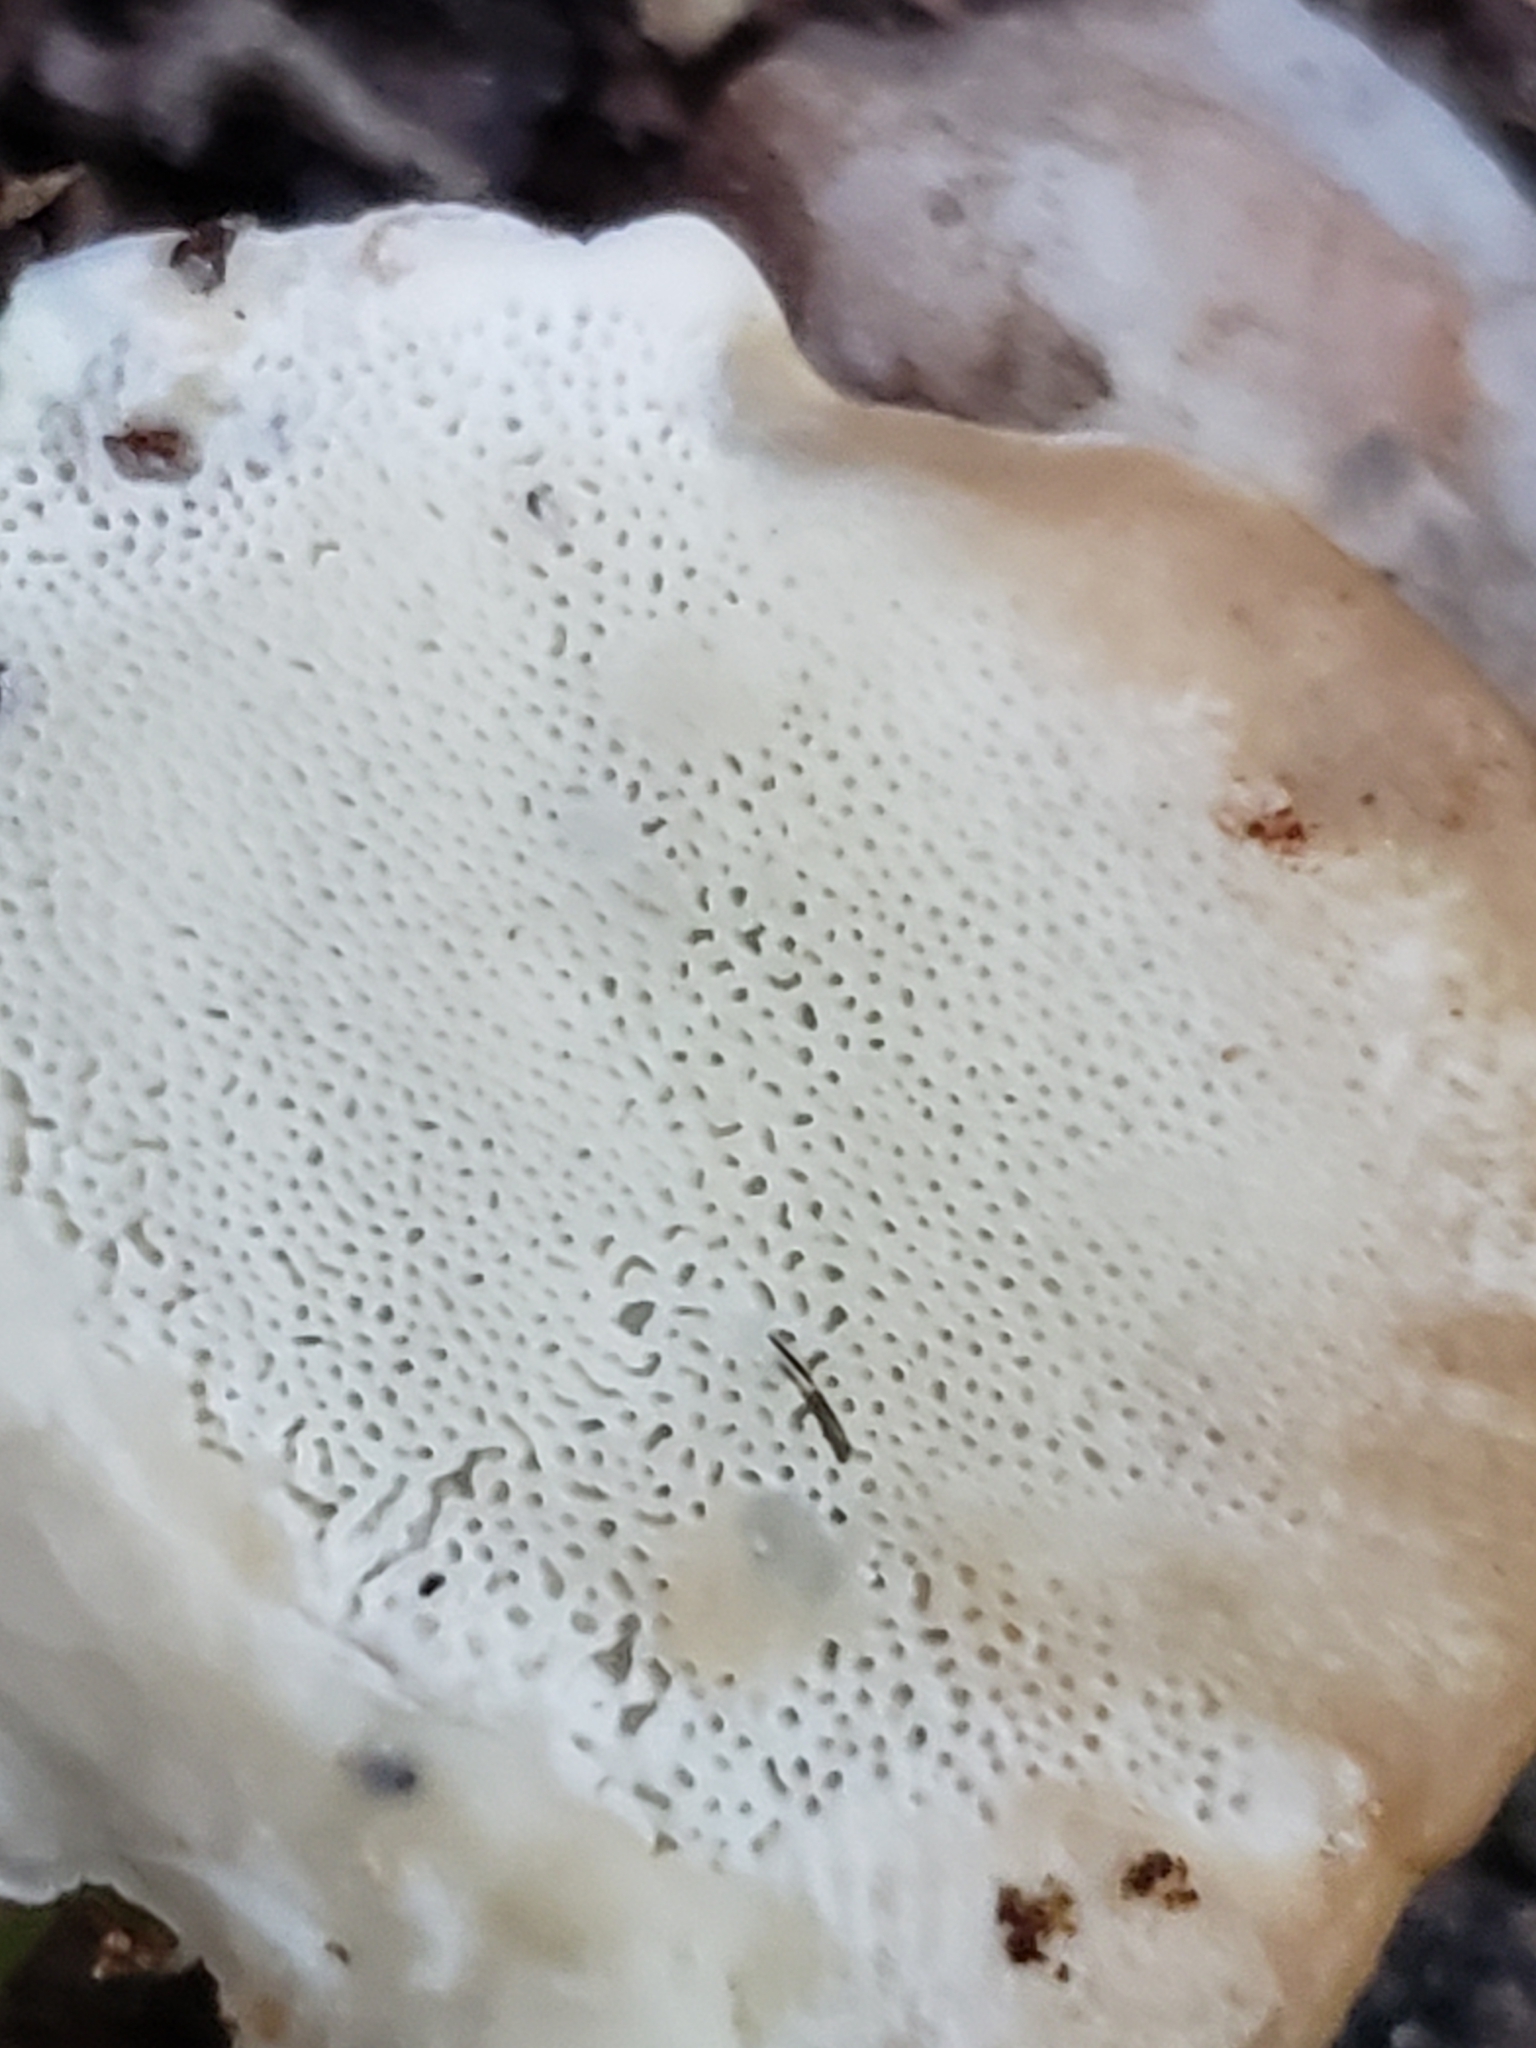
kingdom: Fungi
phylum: Basidiomycota
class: Agaricomycetes
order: Polyporales
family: Fomitopsidaceae
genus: Niveoporofomes
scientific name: Niveoporofomes spraguei
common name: Green cheese polypore
